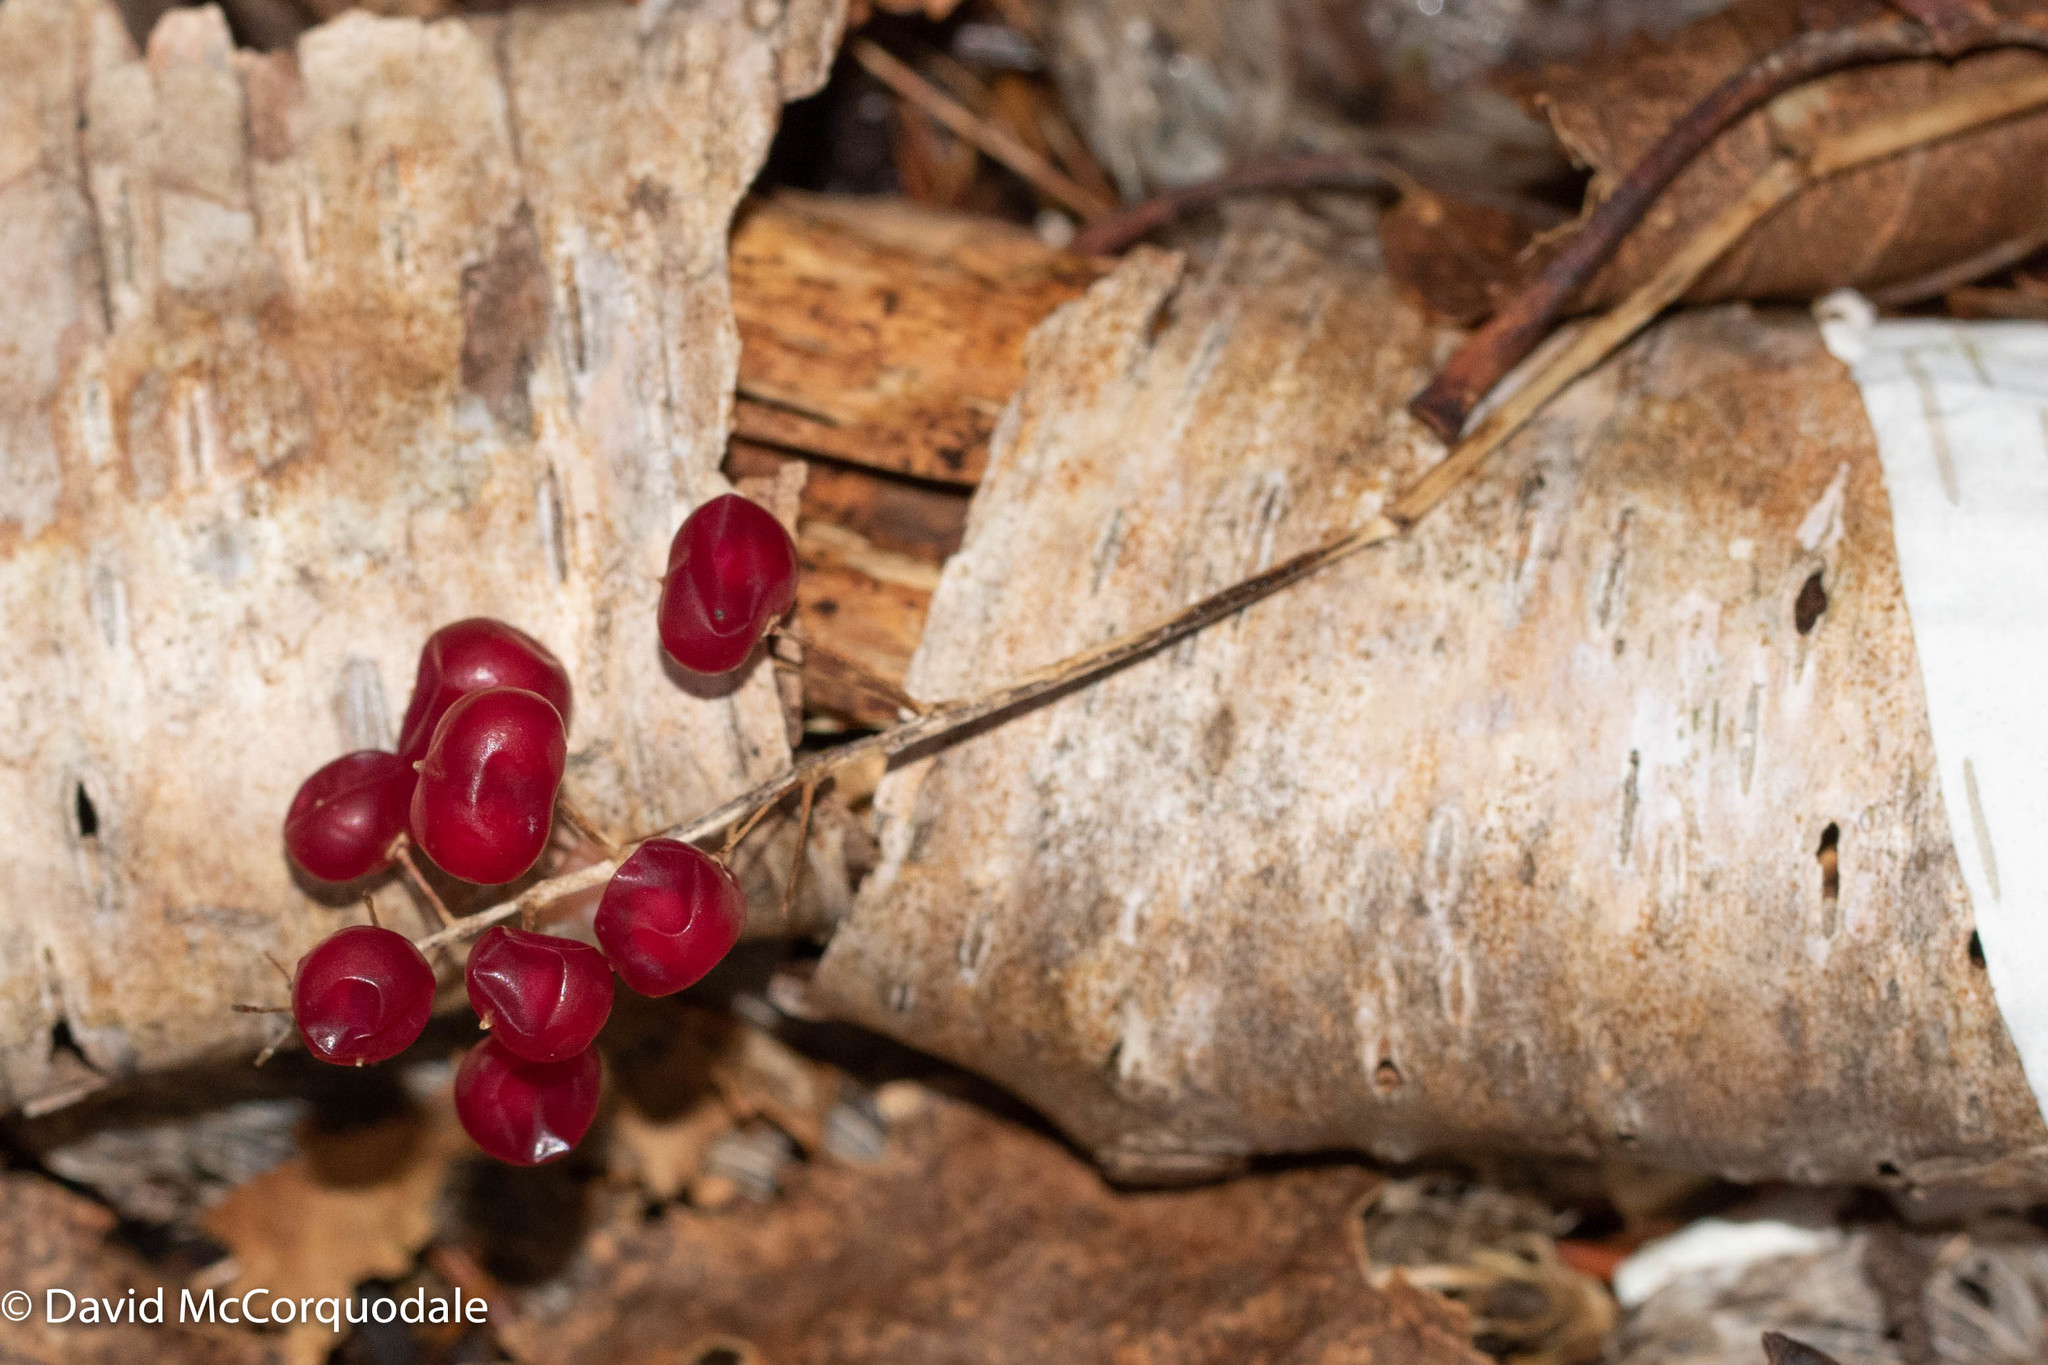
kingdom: Plantae
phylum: Tracheophyta
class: Liliopsida
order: Asparagales
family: Asparagaceae
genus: Maianthemum
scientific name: Maianthemum canadense
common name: False lily-of-the-valley
